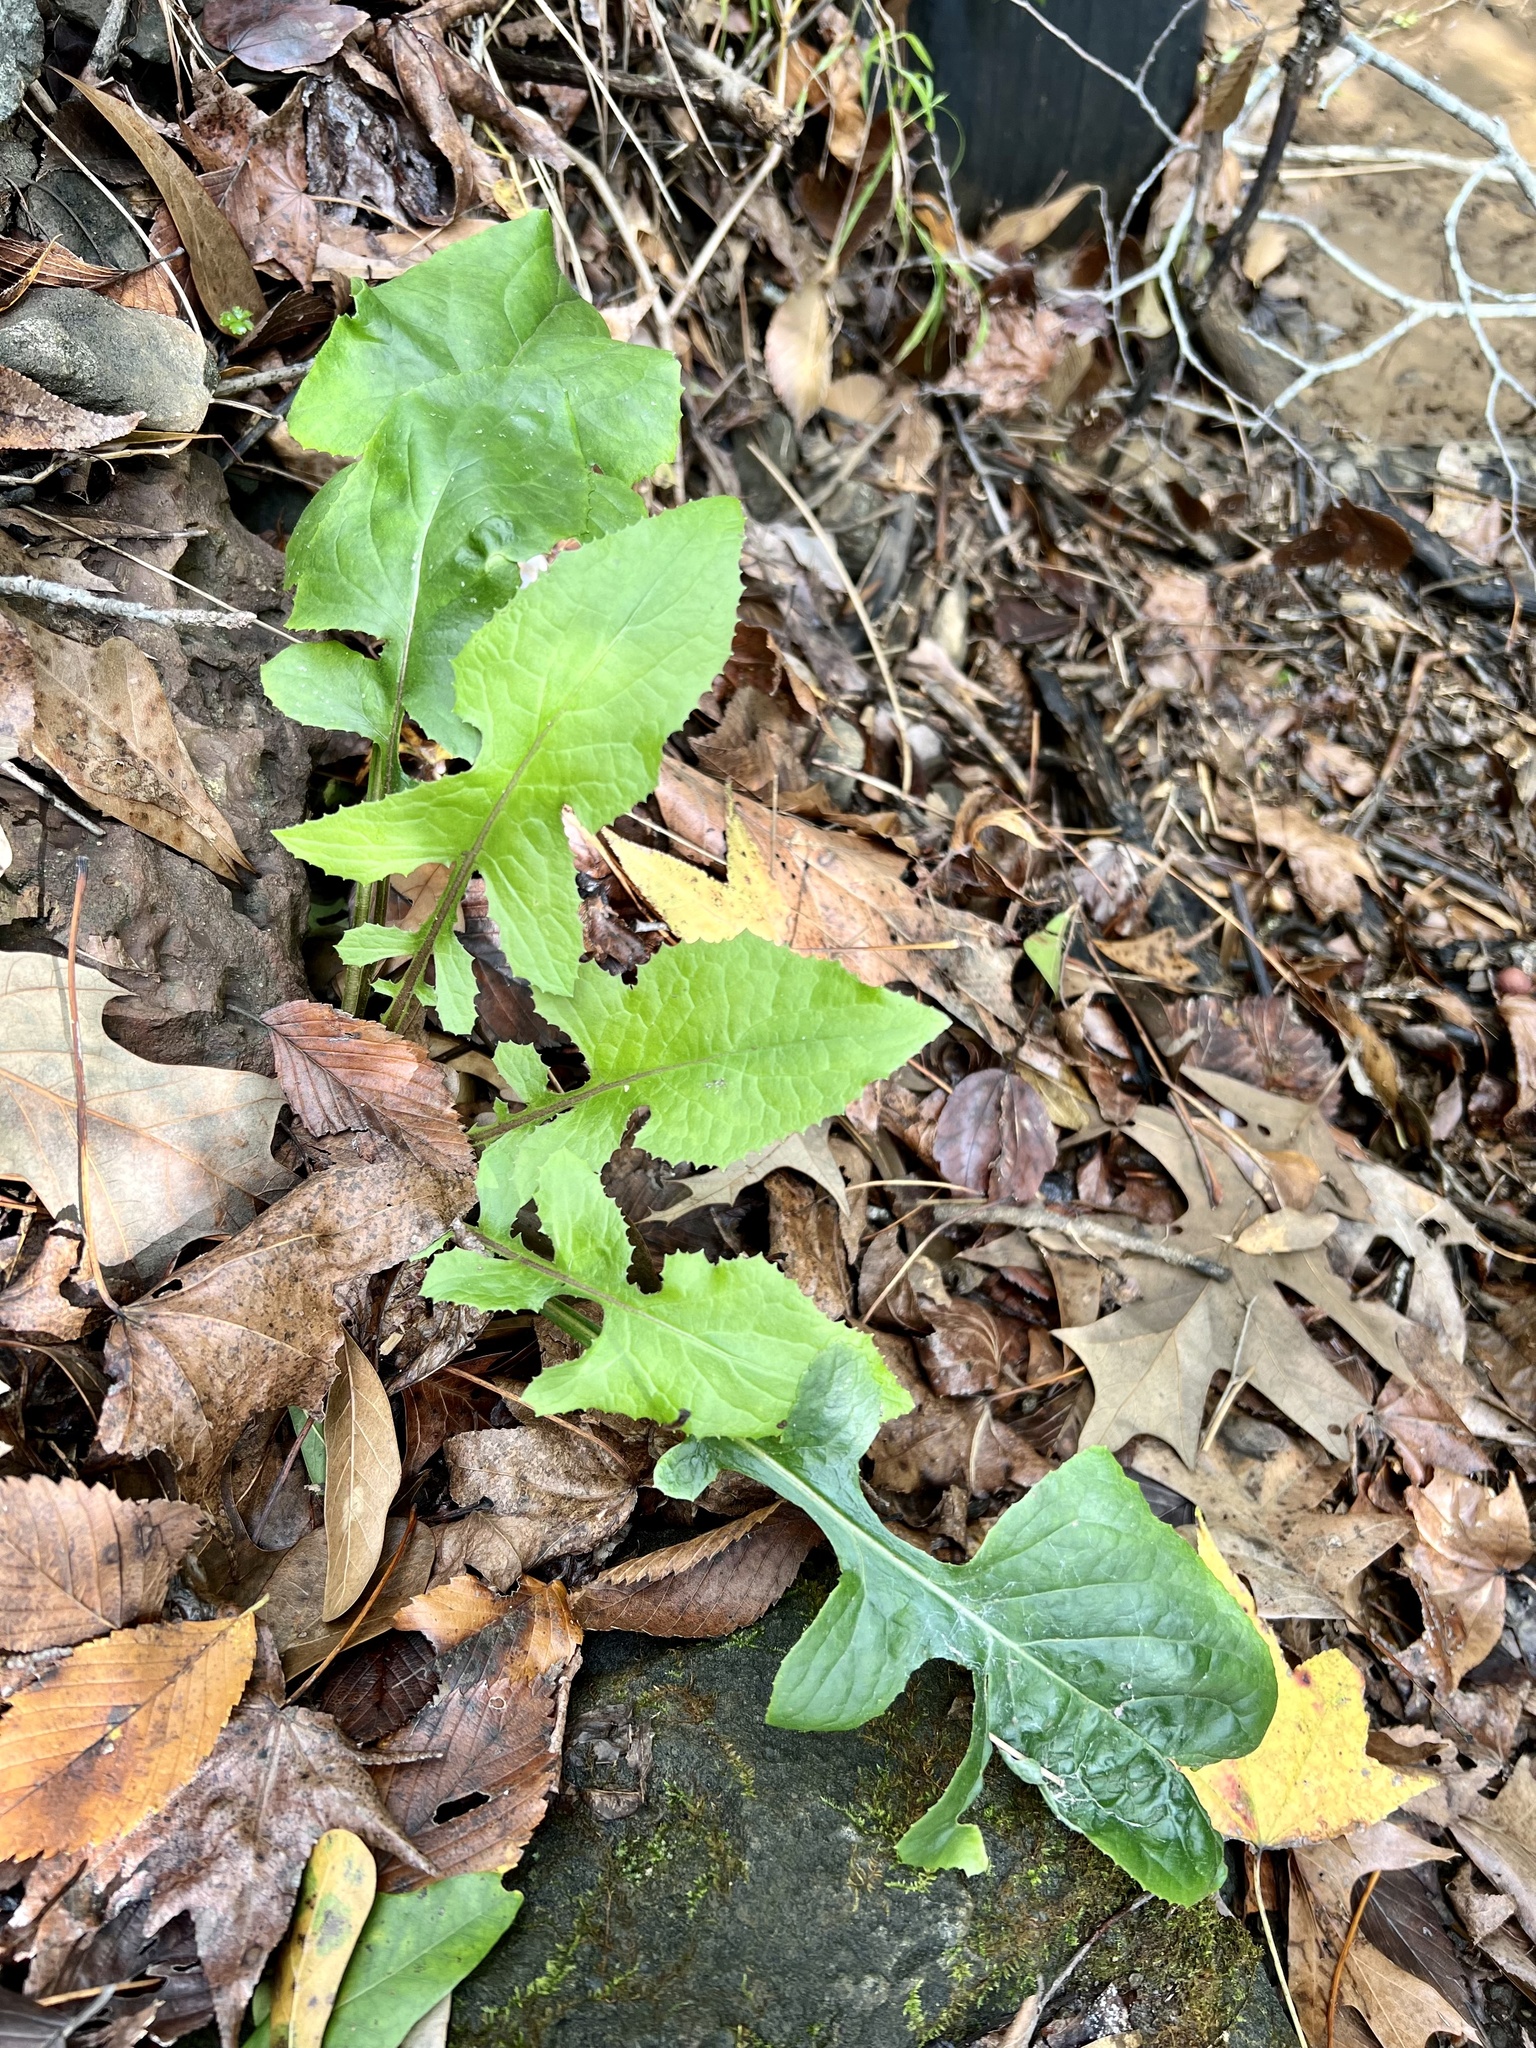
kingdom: Plantae
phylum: Tracheophyta
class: Magnoliopsida
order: Asterales
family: Asteraceae
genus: Lactuca
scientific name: Lactuca floridana
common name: Woodland lettuce
